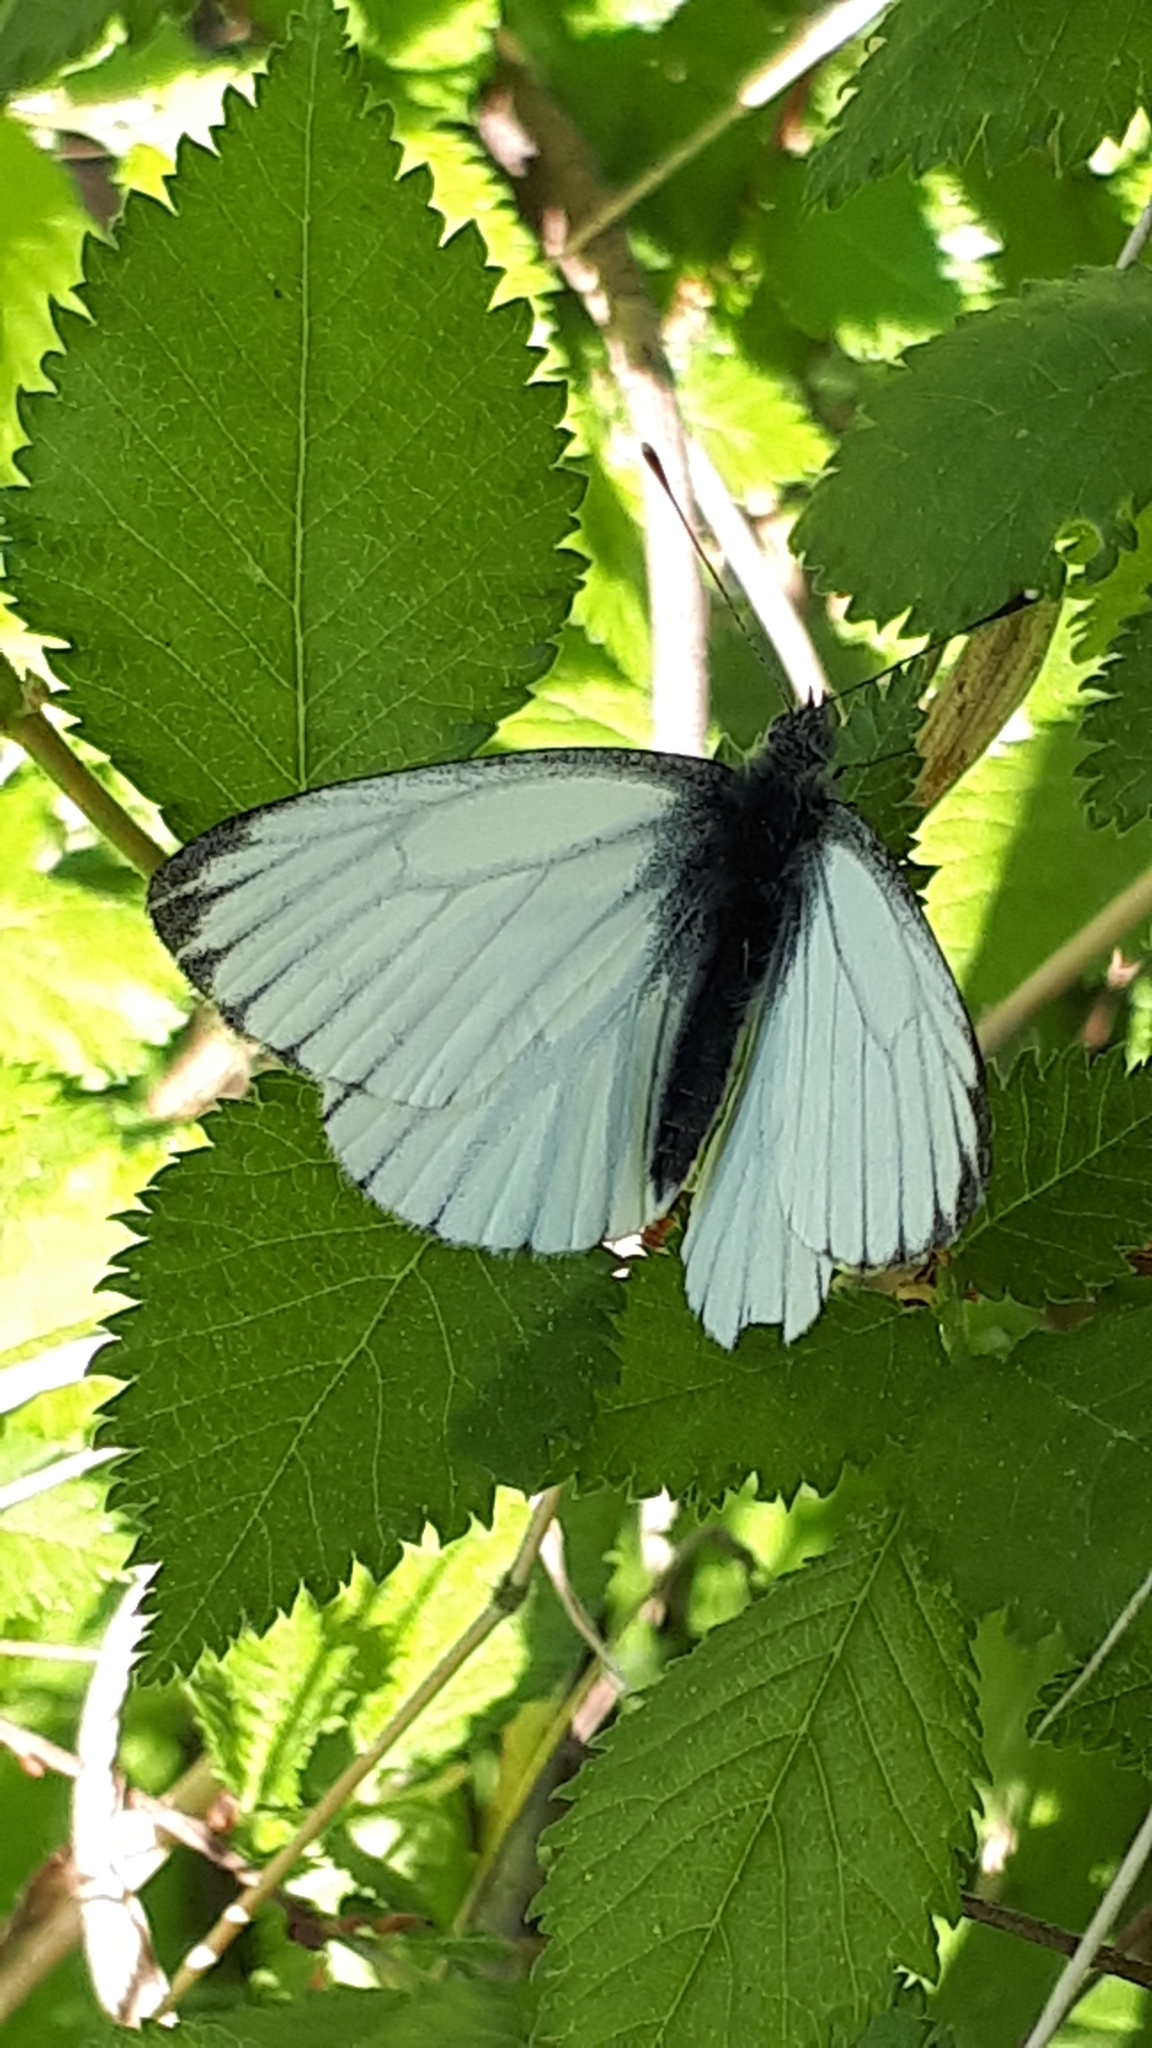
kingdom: Animalia
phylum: Arthropoda
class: Insecta
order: Lepidoptera
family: Pieridae
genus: Pieris
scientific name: Pieris napi
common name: Green-veined white
